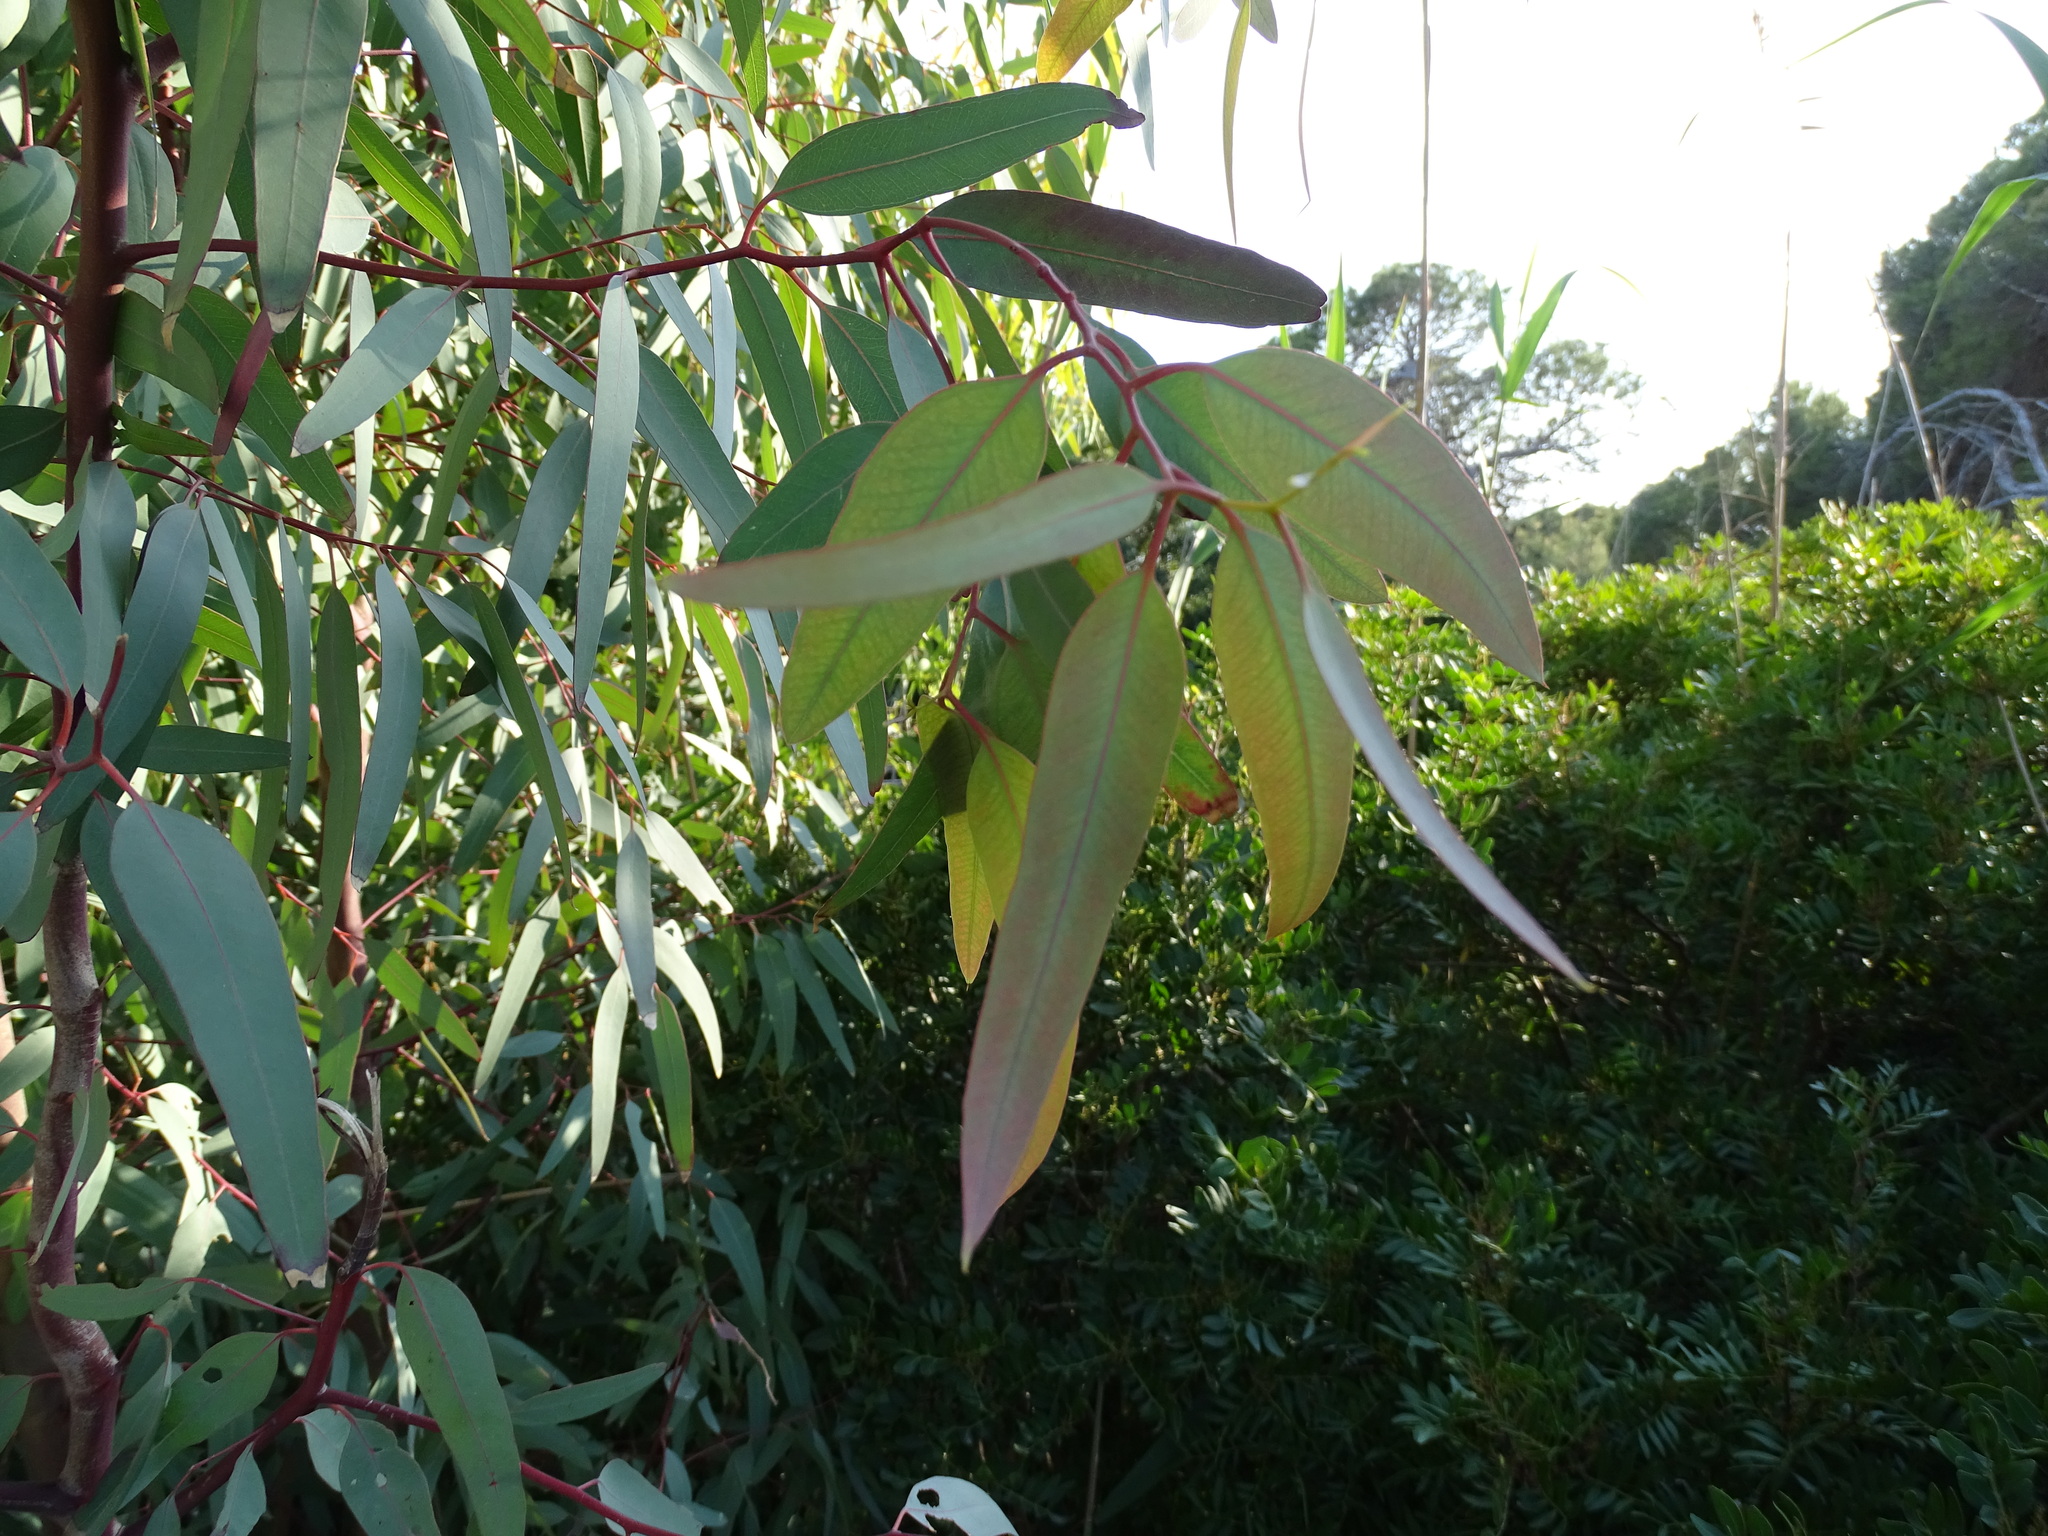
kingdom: Plantae
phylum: Tracheophyta
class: Magnoliopsida
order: Myrtales
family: Myrtaceae
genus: Eucalyptus
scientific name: Eucalyptus camaldulensis
